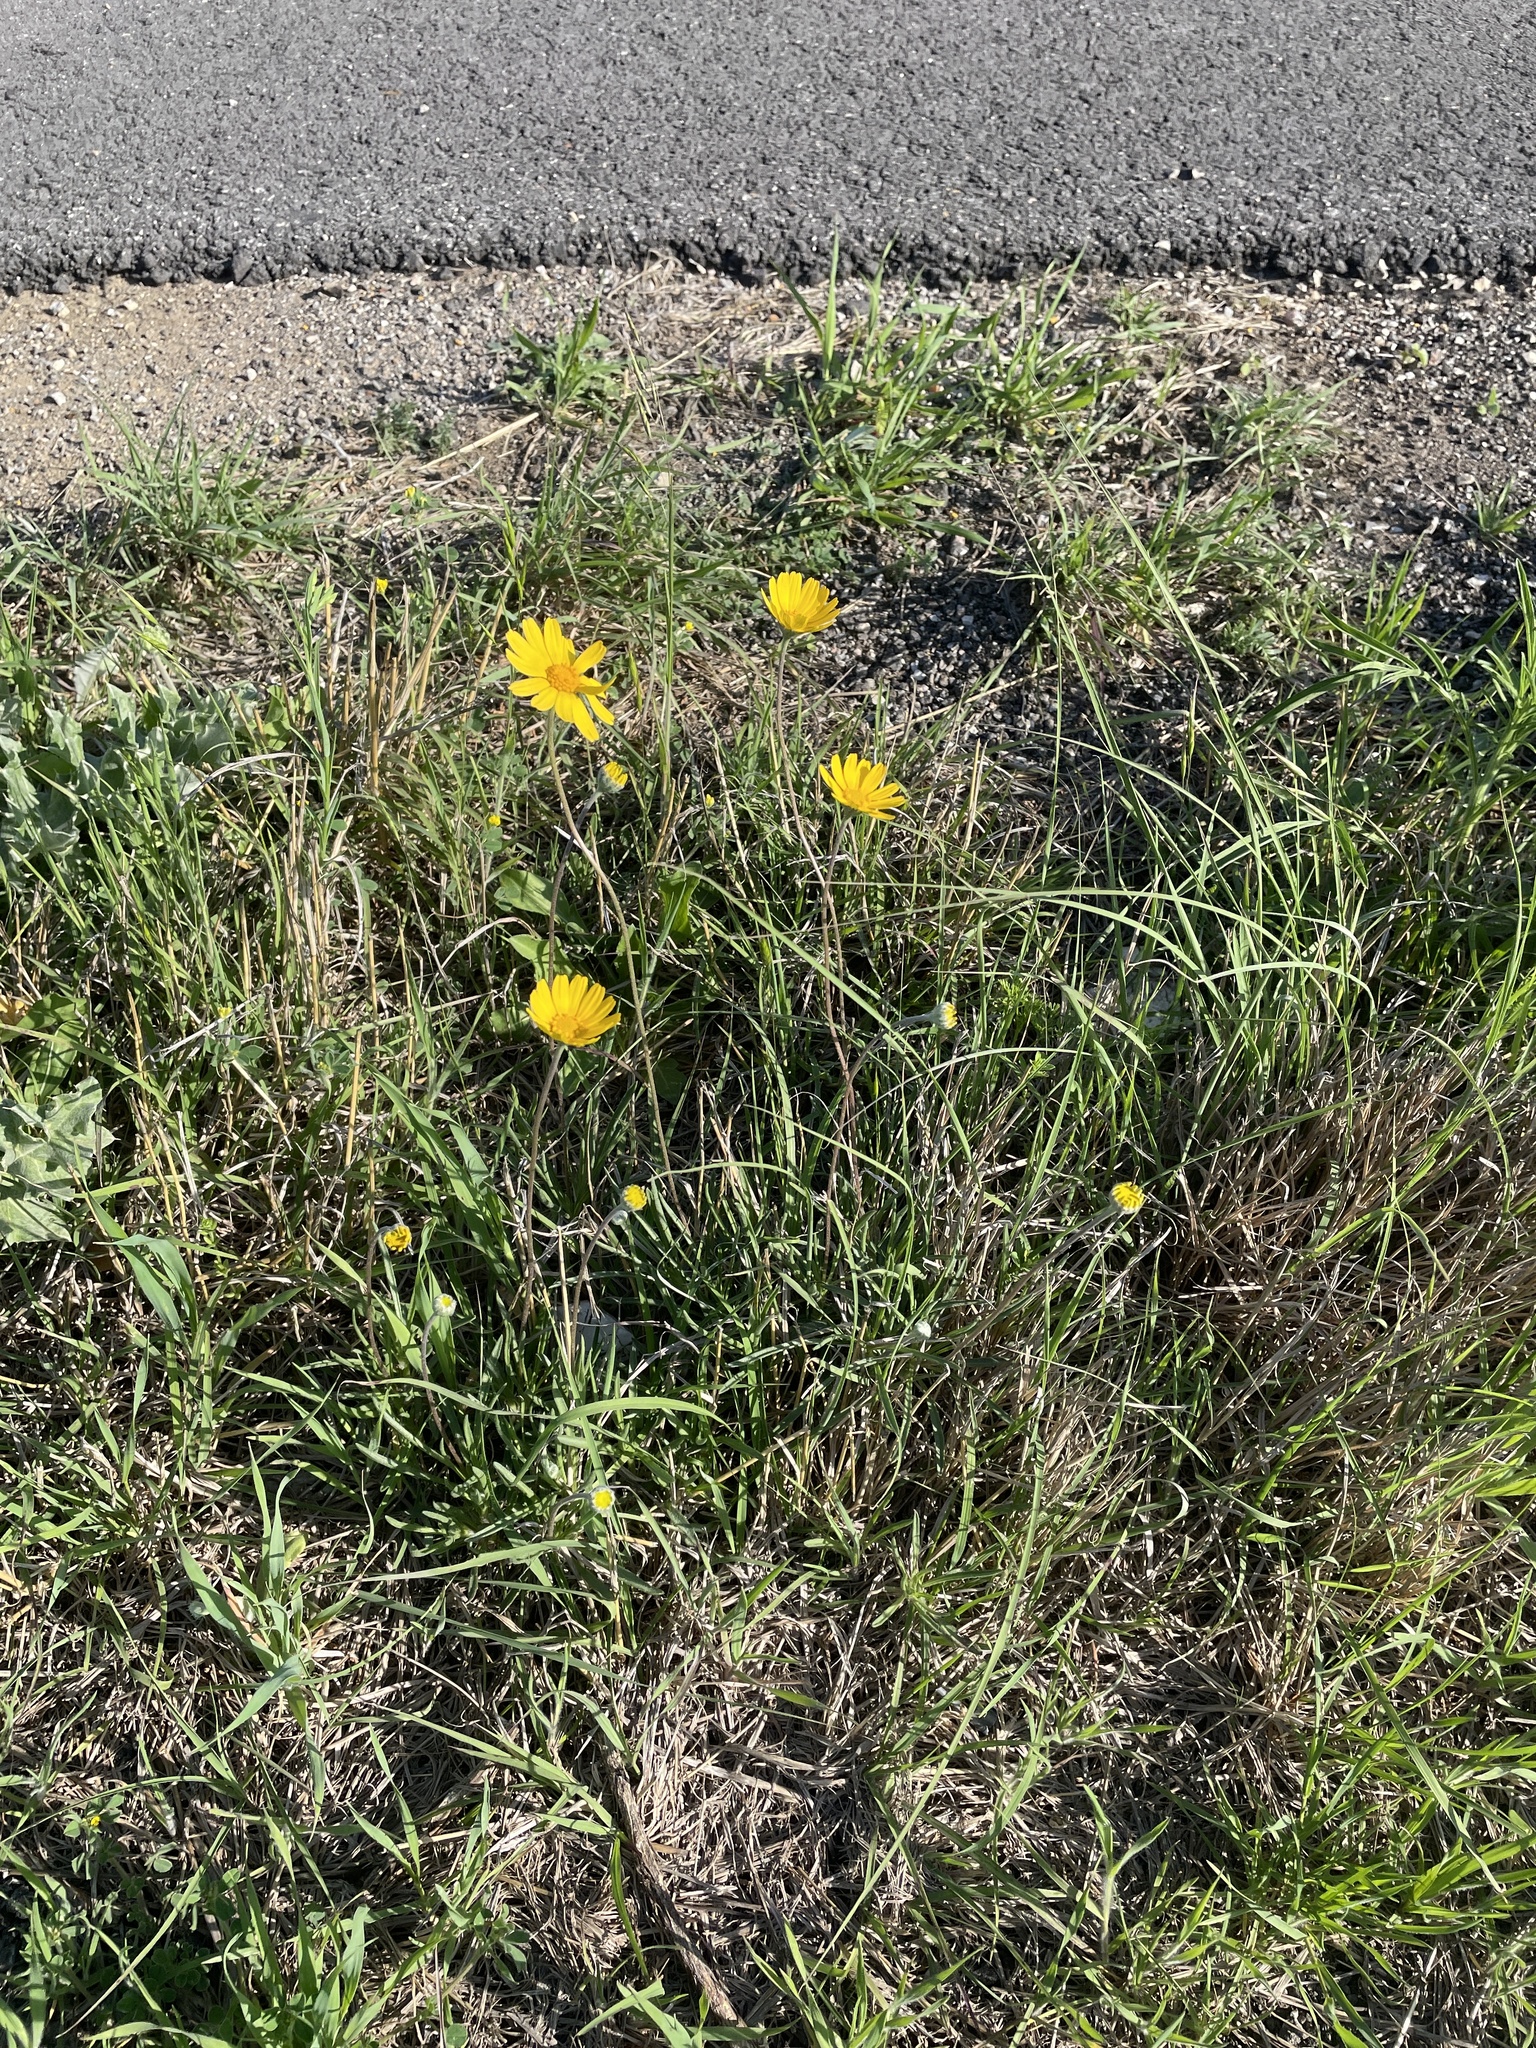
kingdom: Plantae
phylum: Tracheophyta
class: Magnoliopsida
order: Asterales
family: Asteraceae
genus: Tetraneuris
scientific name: Tetraneuris scaposa
